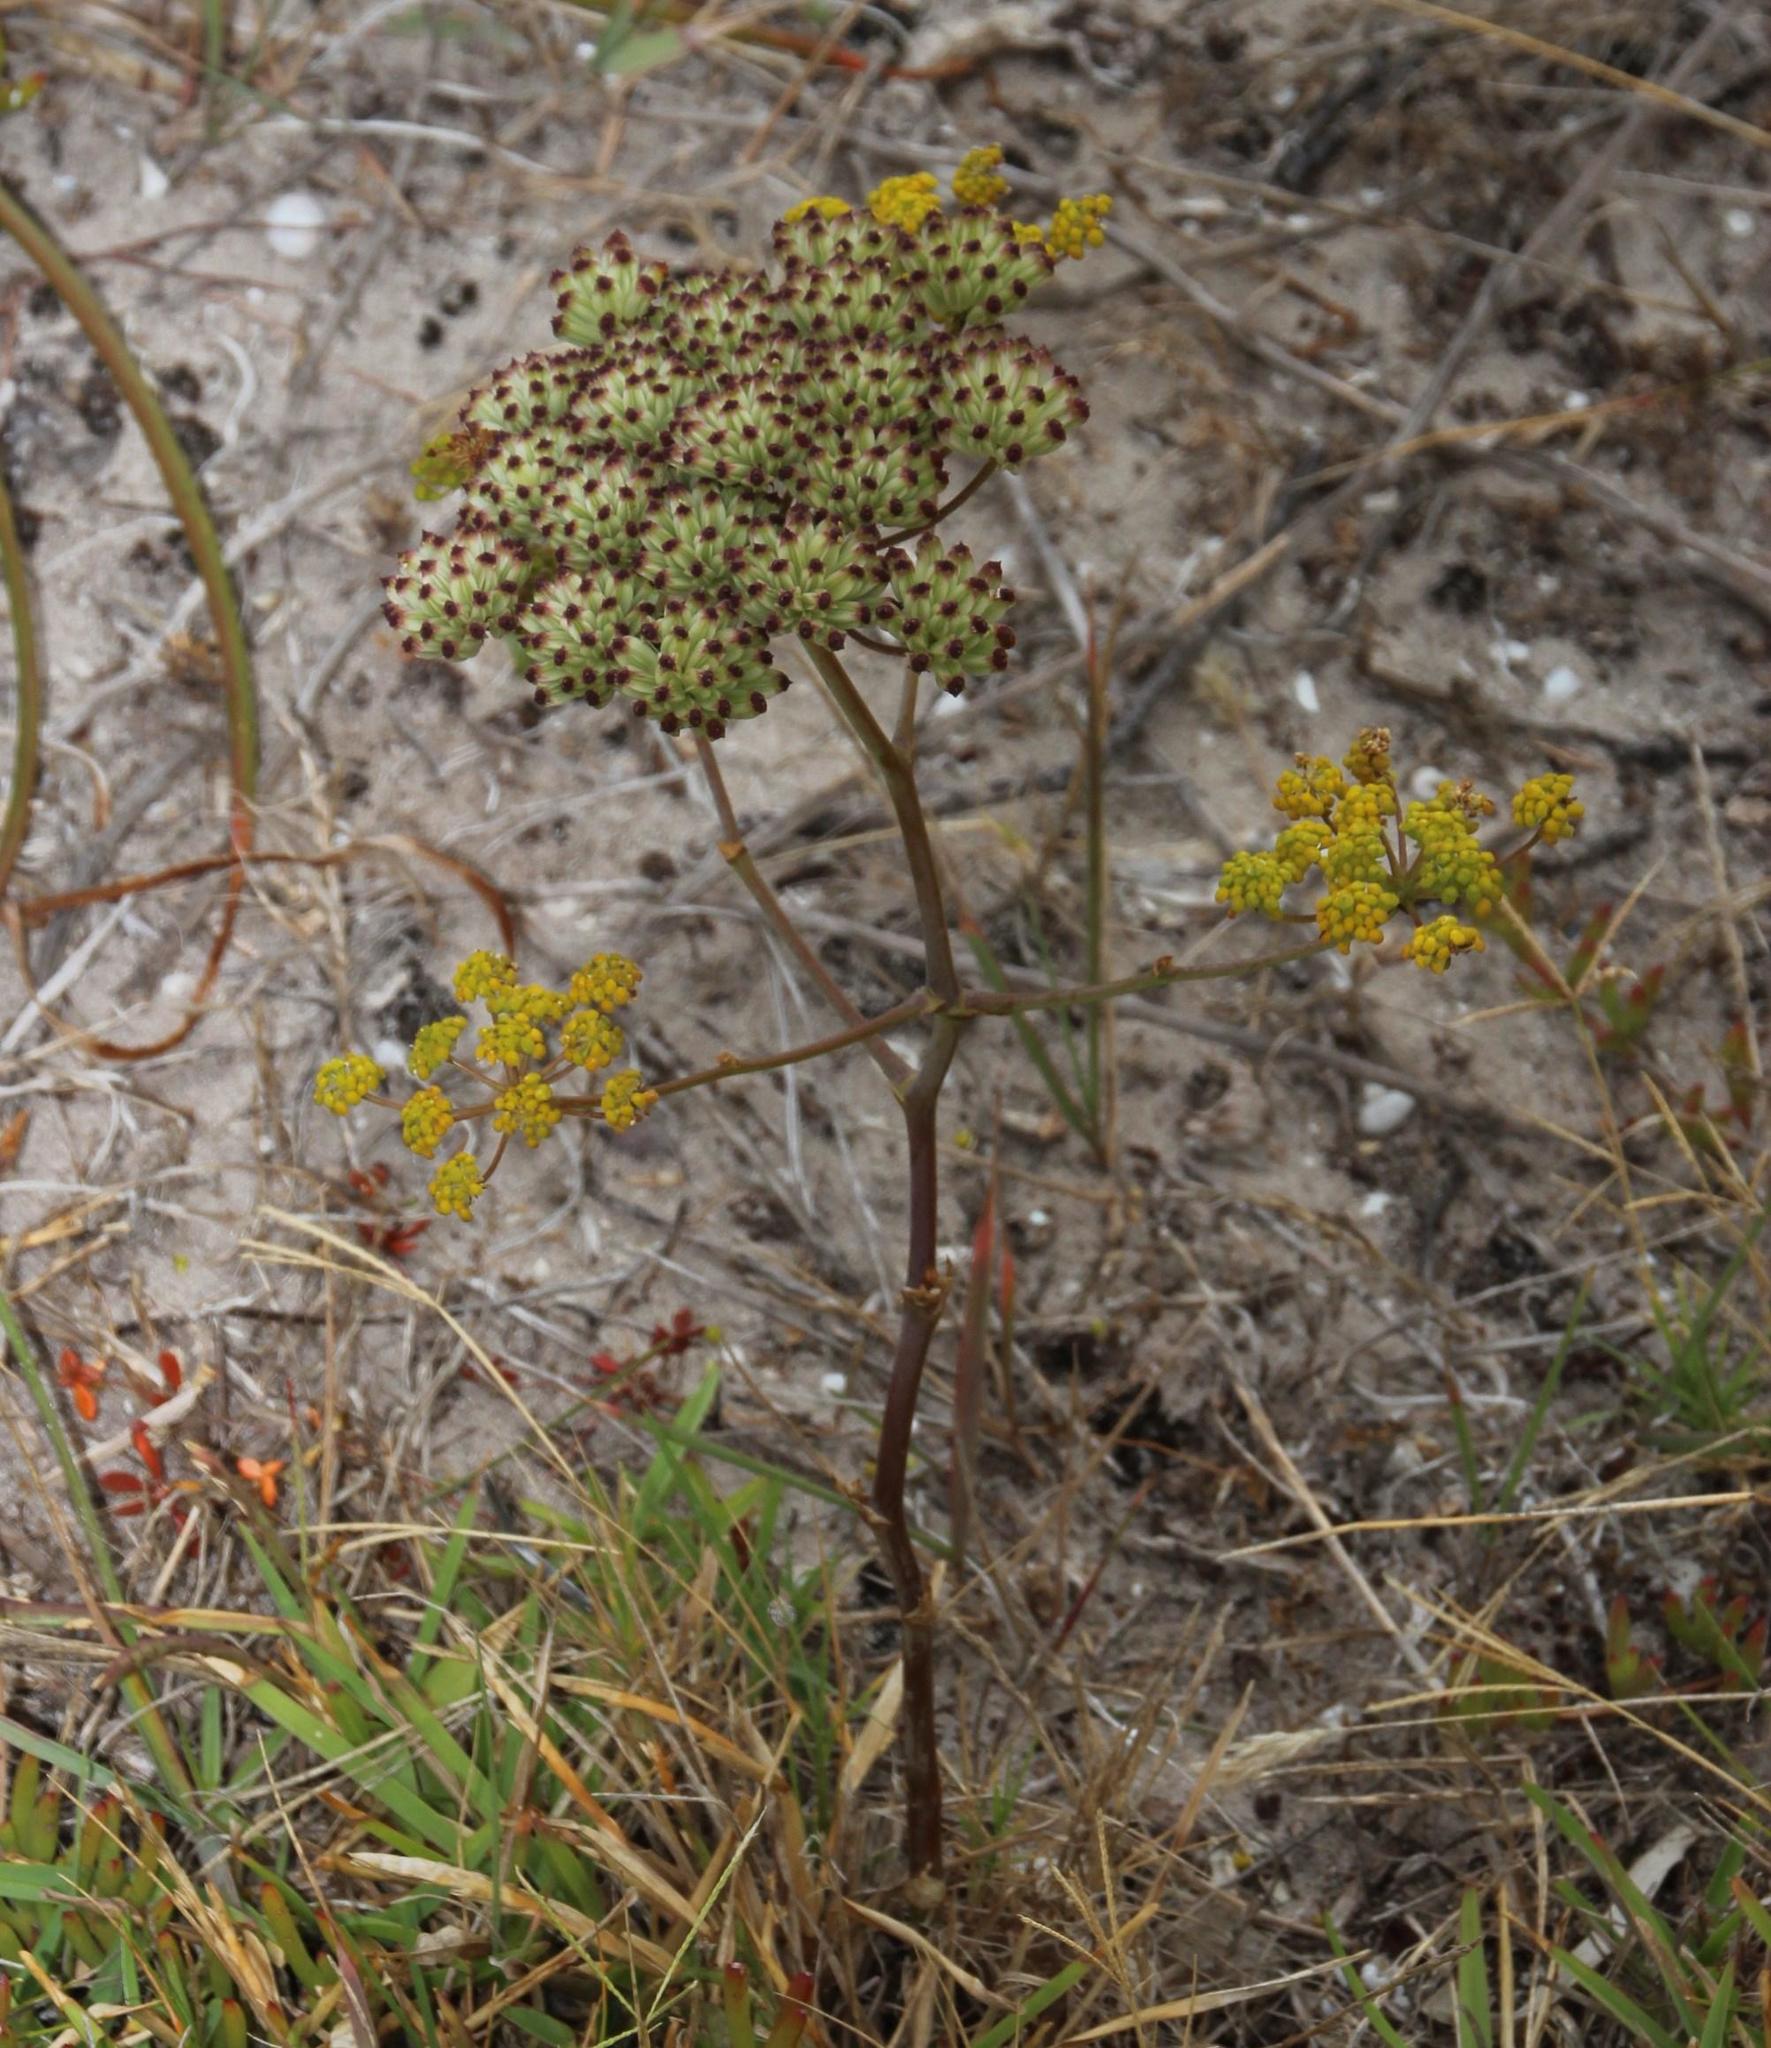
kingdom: Plantae
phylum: Tracheophyta
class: Magnoliopsida
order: Apiales
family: Apiaceae
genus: Annesorhiza
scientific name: Annesorhiza macrocarpa
